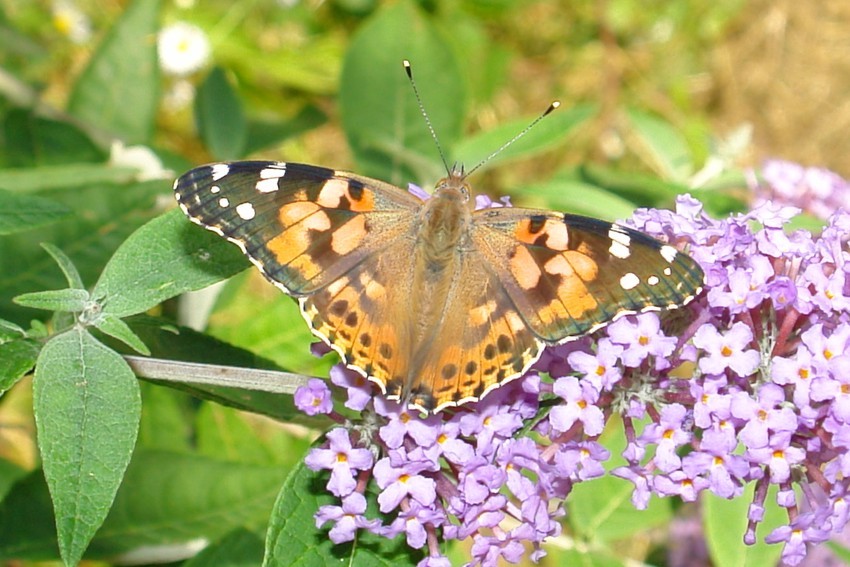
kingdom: Animalia
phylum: Arthropoda
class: Insecta
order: Lepidoptera
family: Nymphalidae
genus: Vanessa
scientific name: Vanessa cardui
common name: Painted lady
